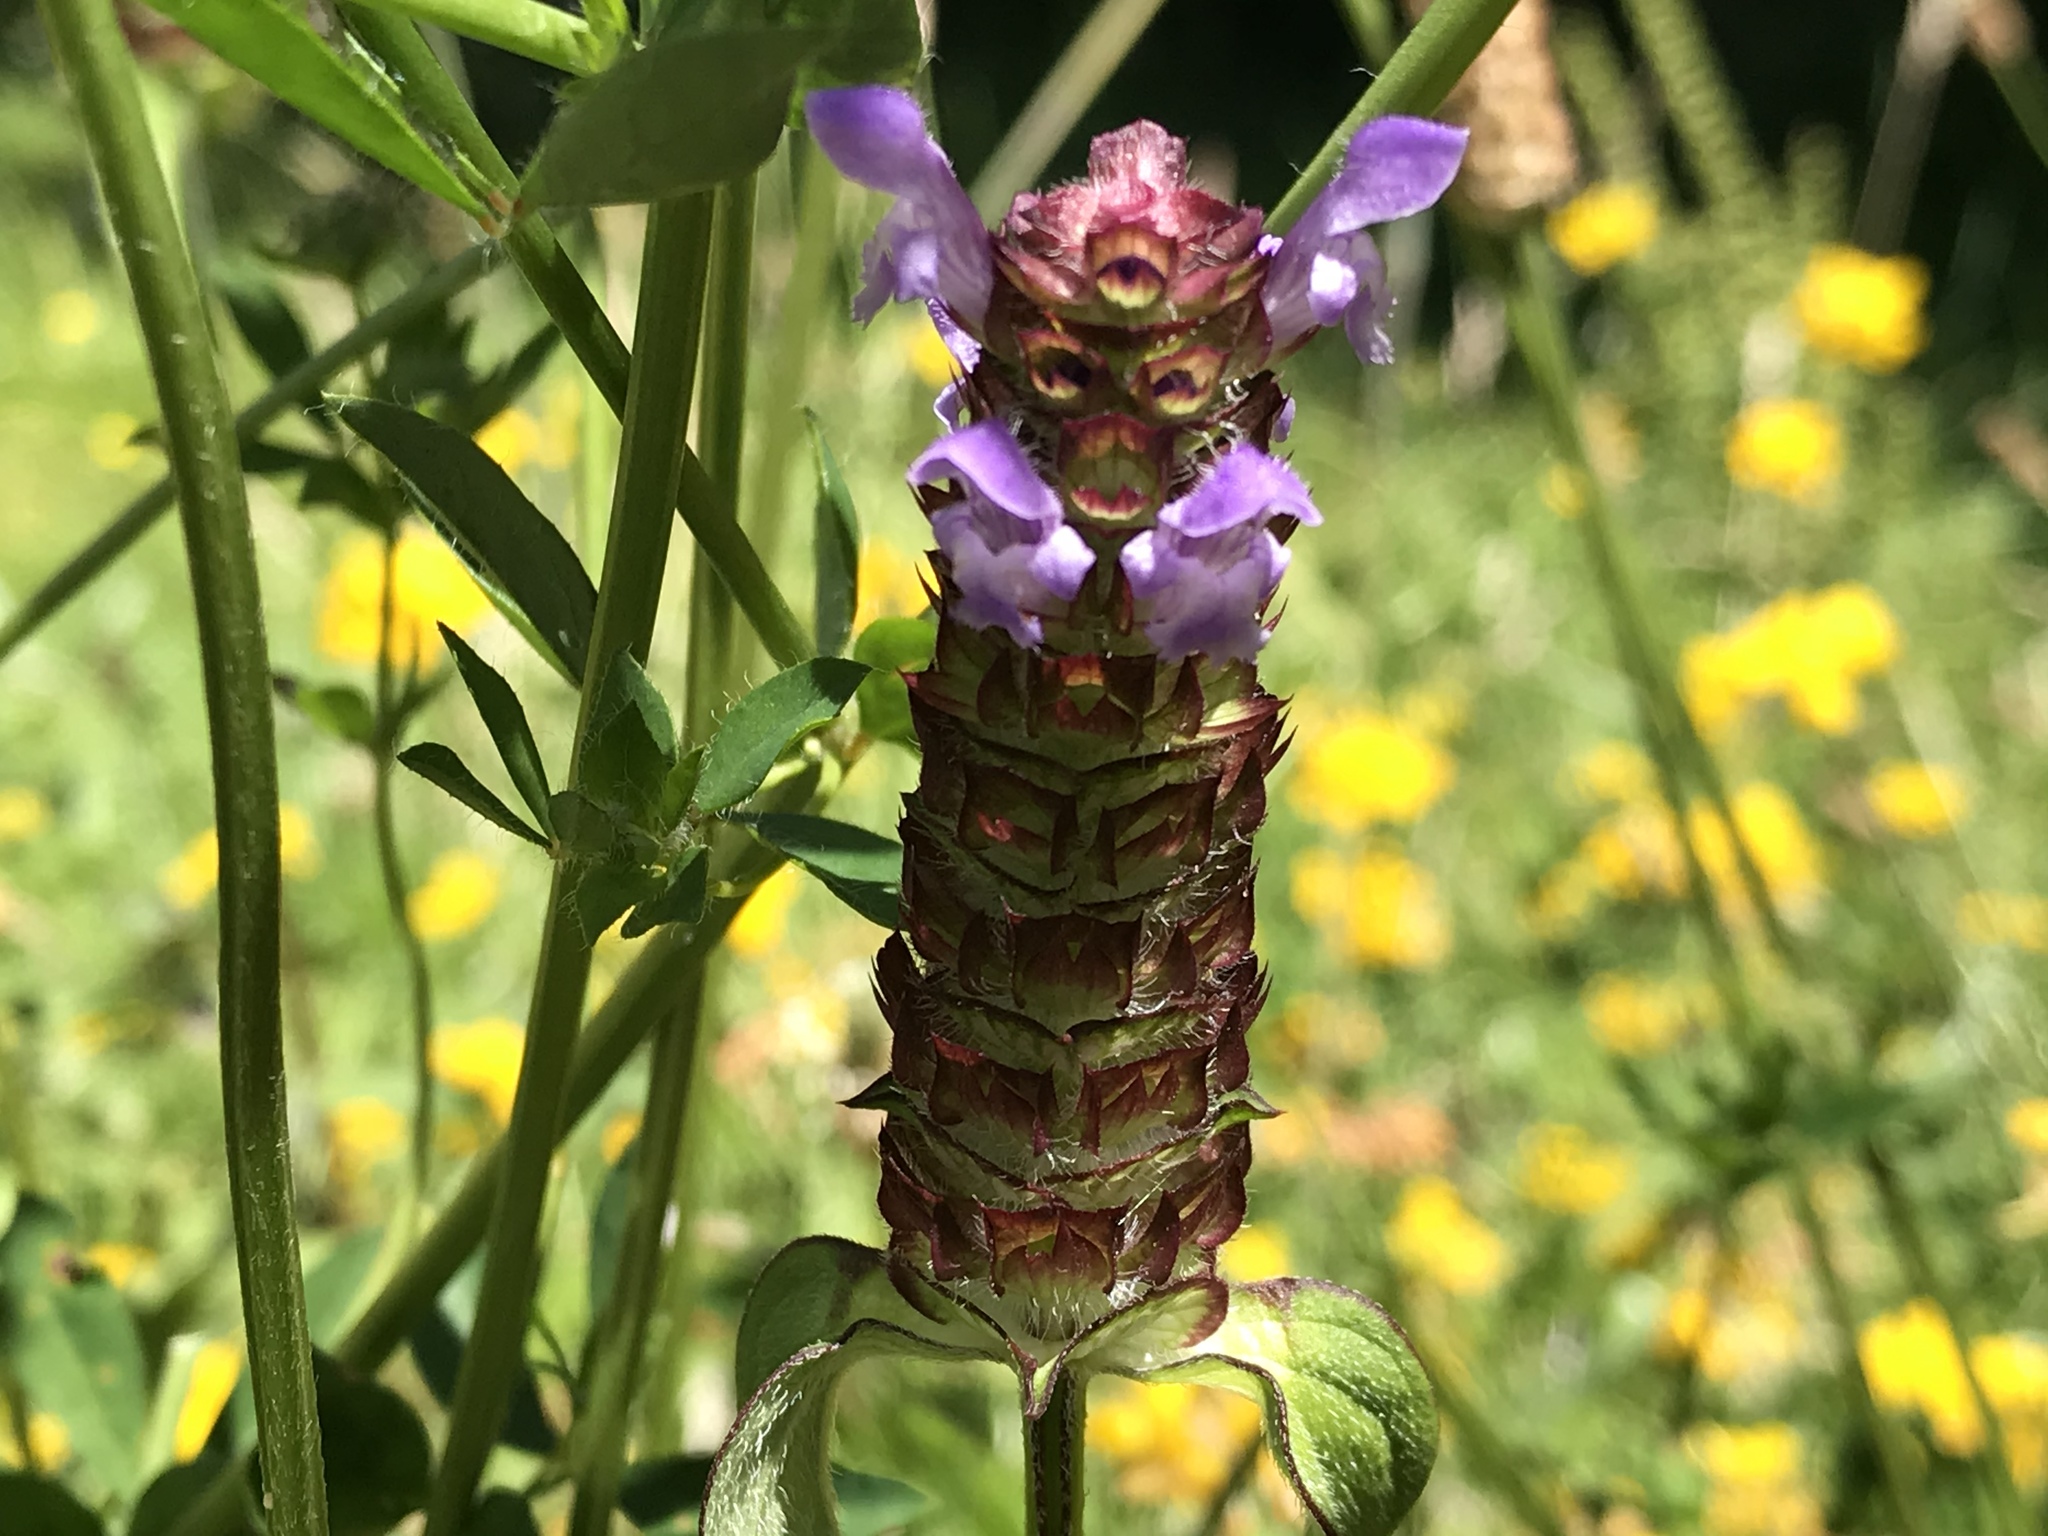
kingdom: Plantae
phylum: Tracheophyta
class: Magnoliopsida
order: Lamiales
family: Lamiaceae
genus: Prunella
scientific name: Prunella vulgaris
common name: Heal-all
